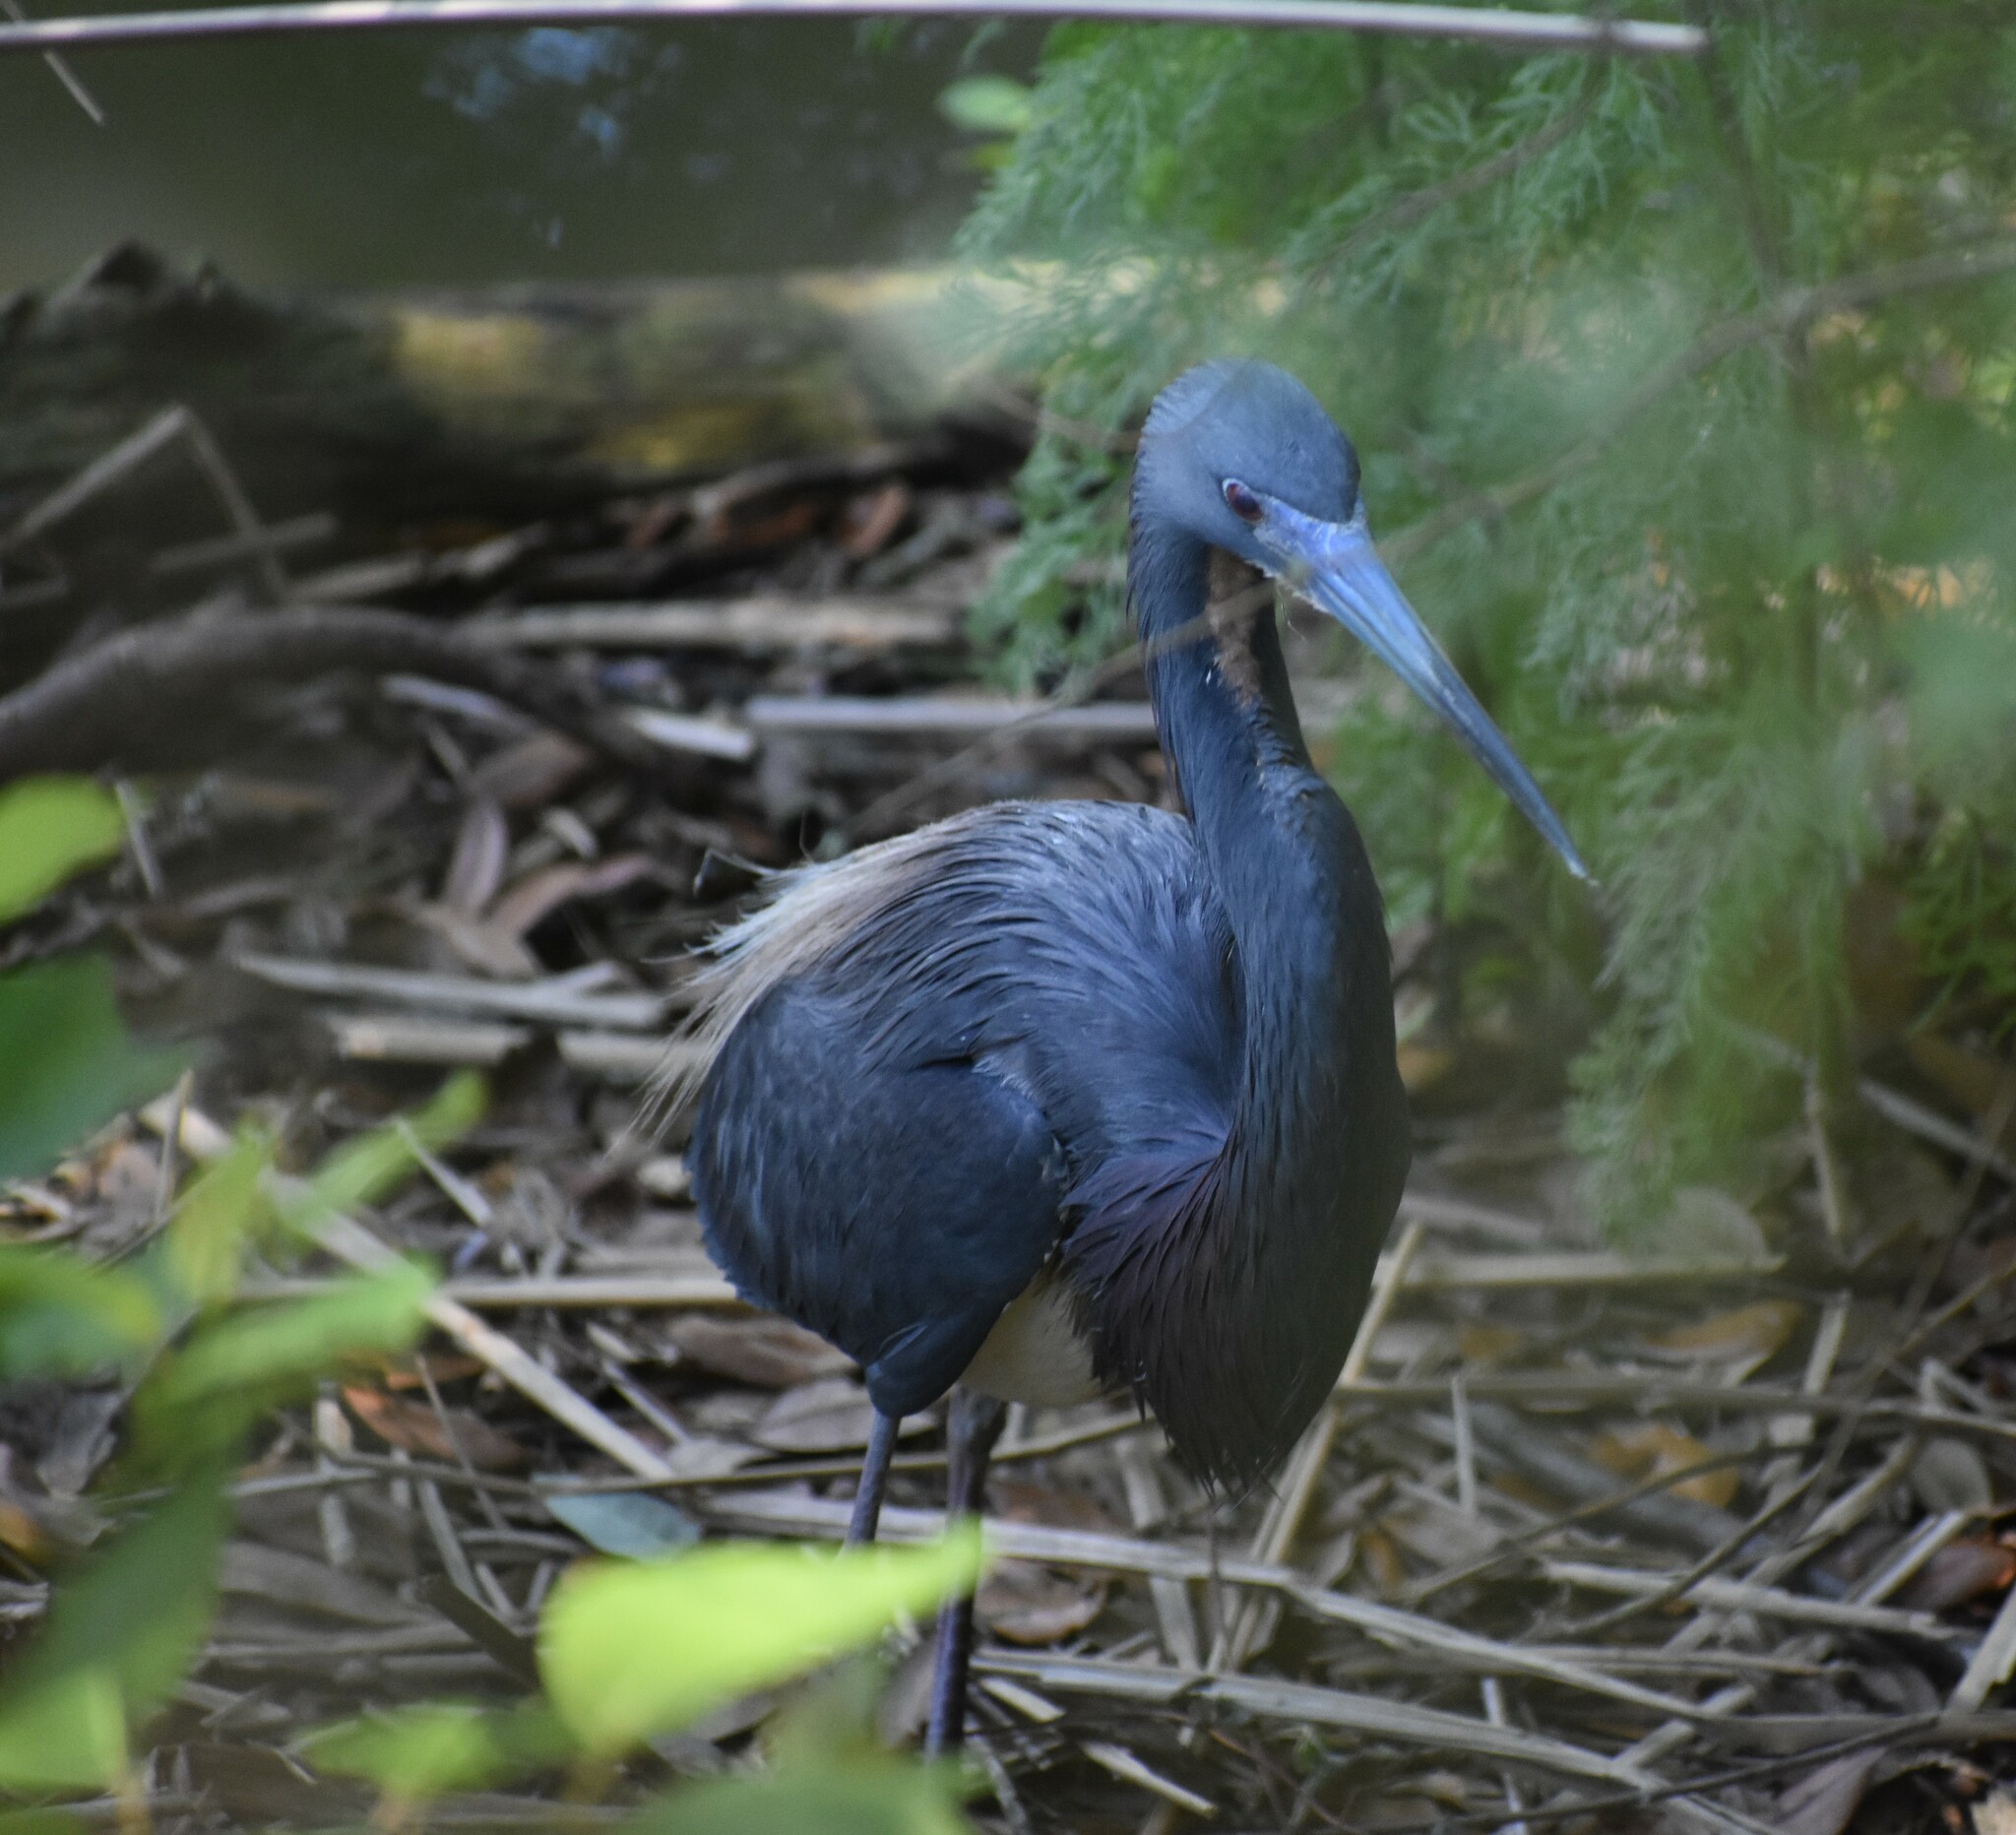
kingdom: Animalia
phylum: Chordata
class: Aves
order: Pelecaniformes
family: Ardeidae
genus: Egretta
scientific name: Egretta tricolor
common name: Tricolored heron
